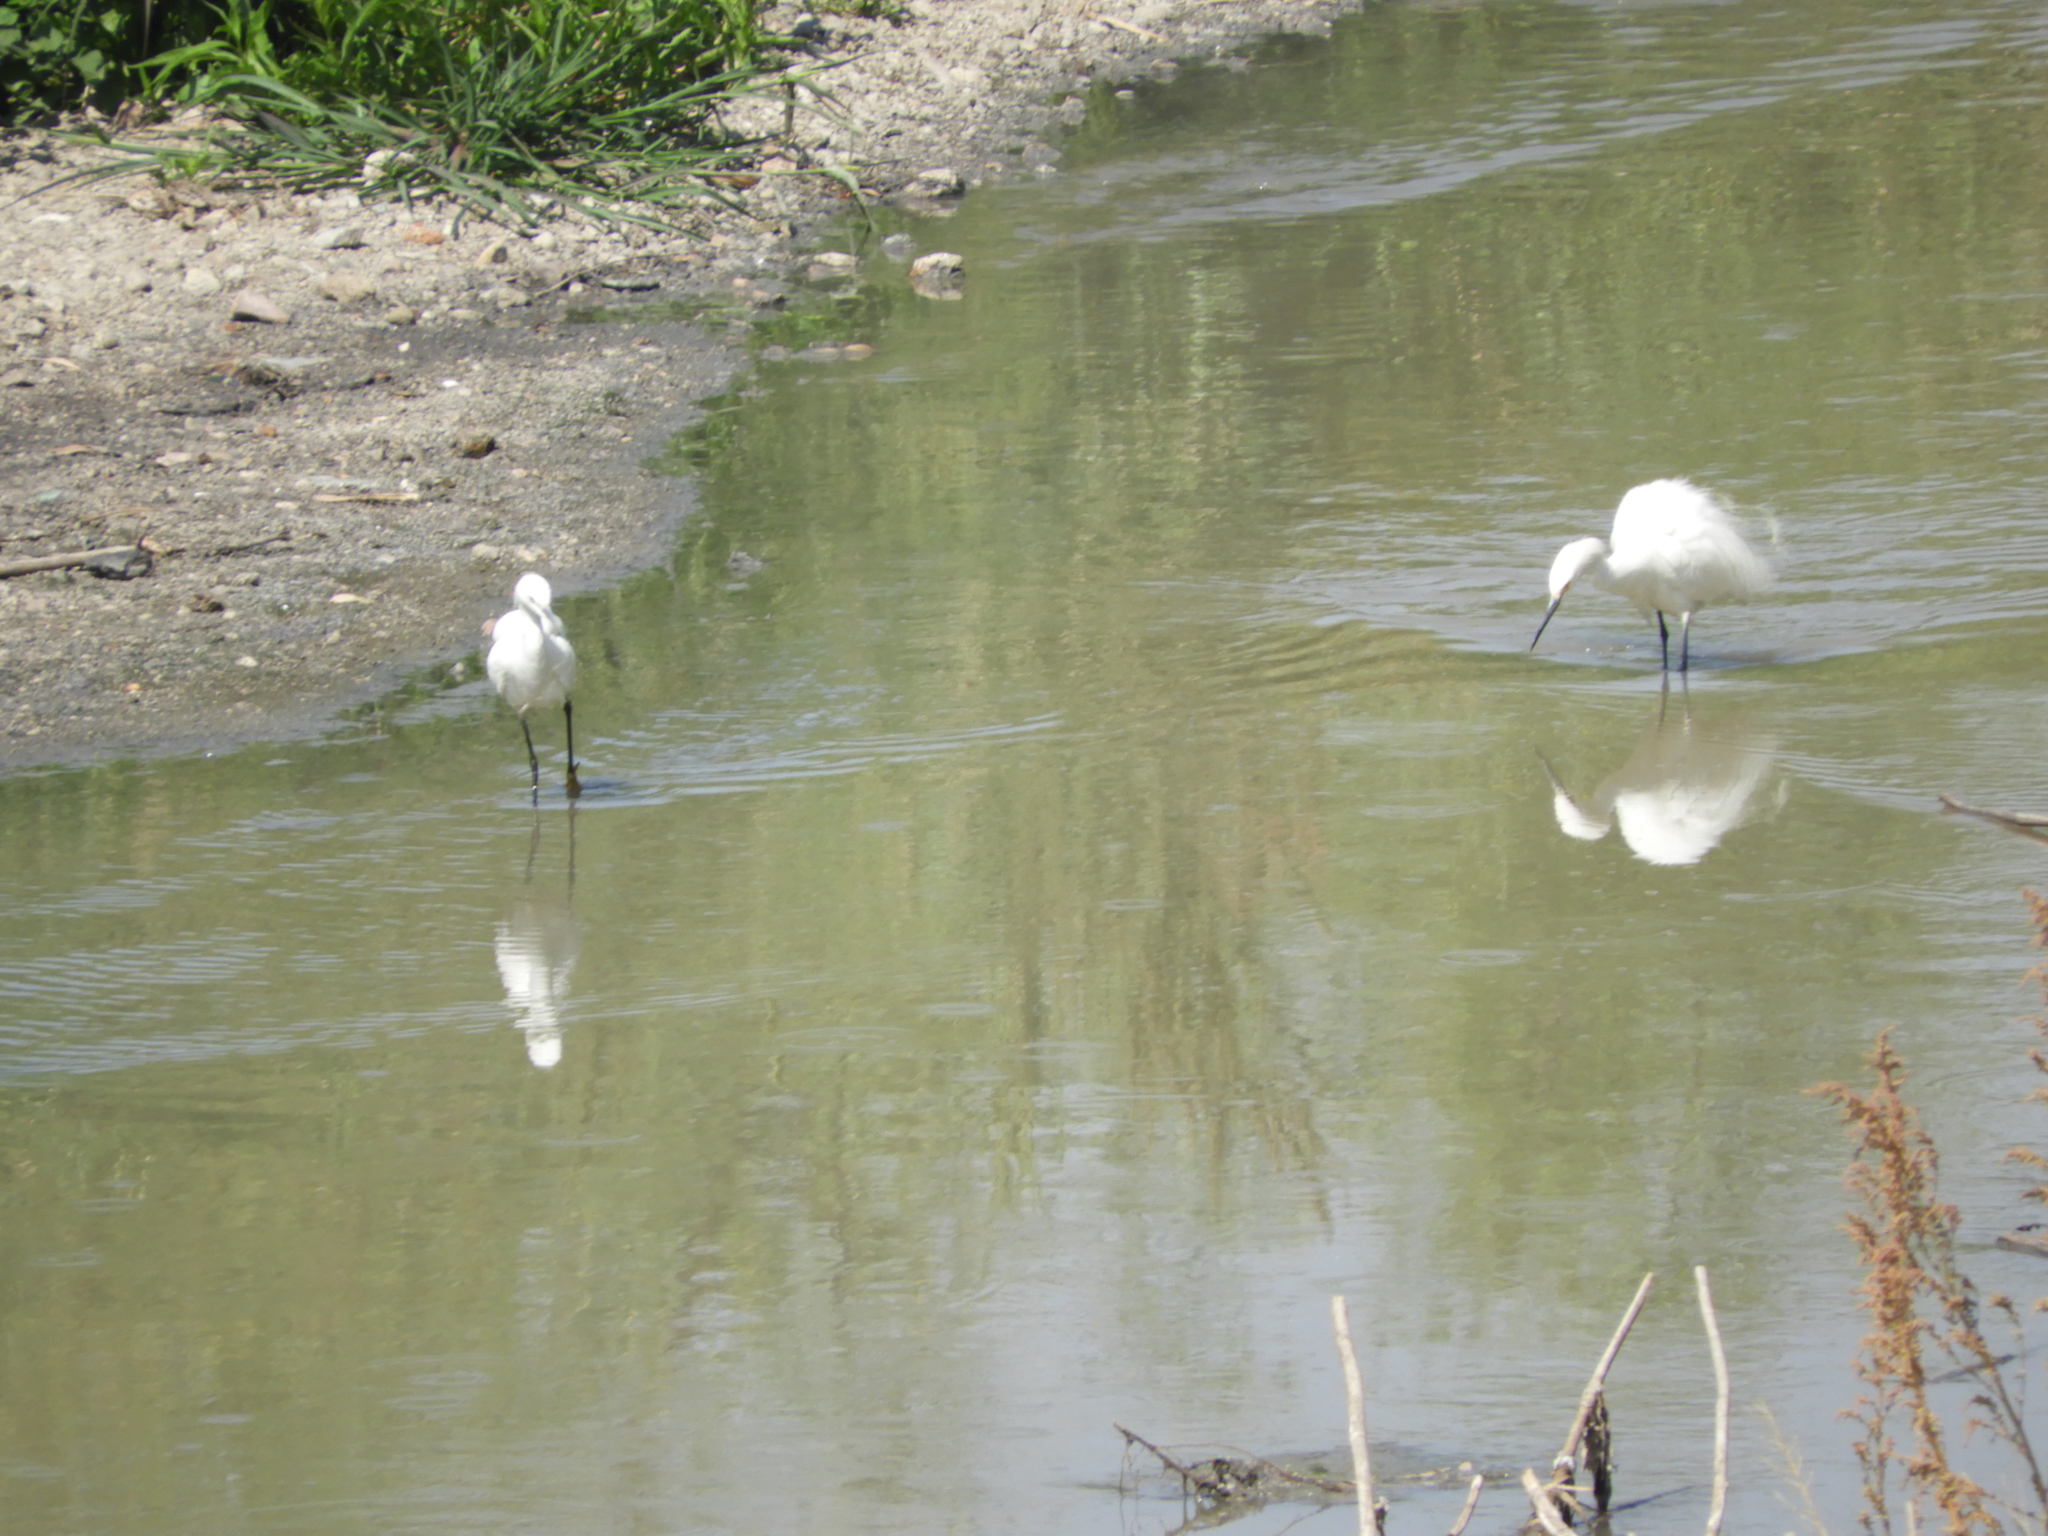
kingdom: Animalia
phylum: Chordata
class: Aves
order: Pelecaniformes
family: Ardeidae
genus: Egretta
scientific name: Egretta thula
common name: Snowy egret
